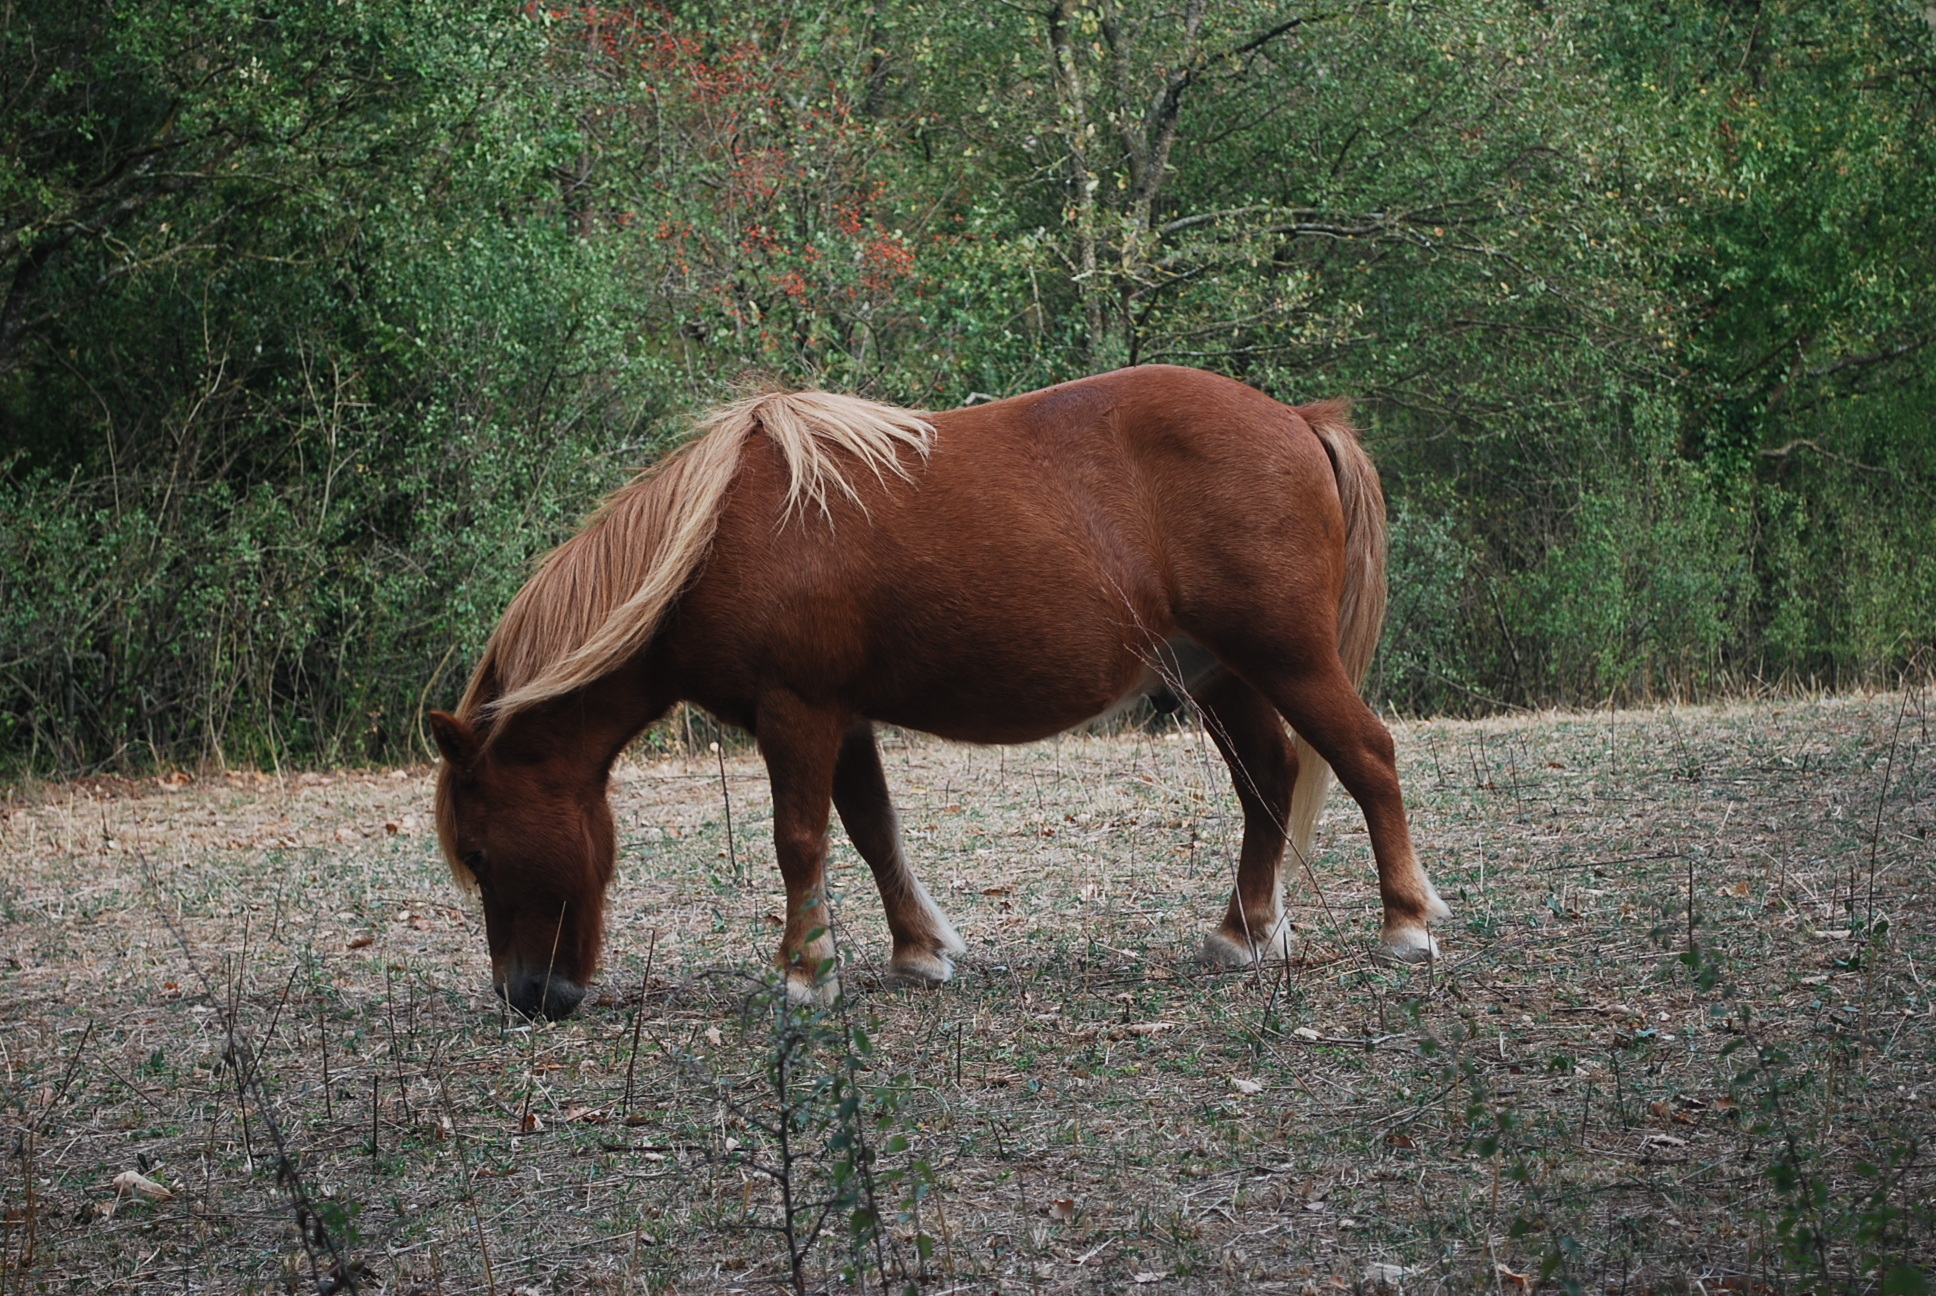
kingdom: Animalia
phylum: Chordata
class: Mammalia
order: Perissodactyla
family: Equidae
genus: Equus
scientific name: Equus caballus
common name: Horse
